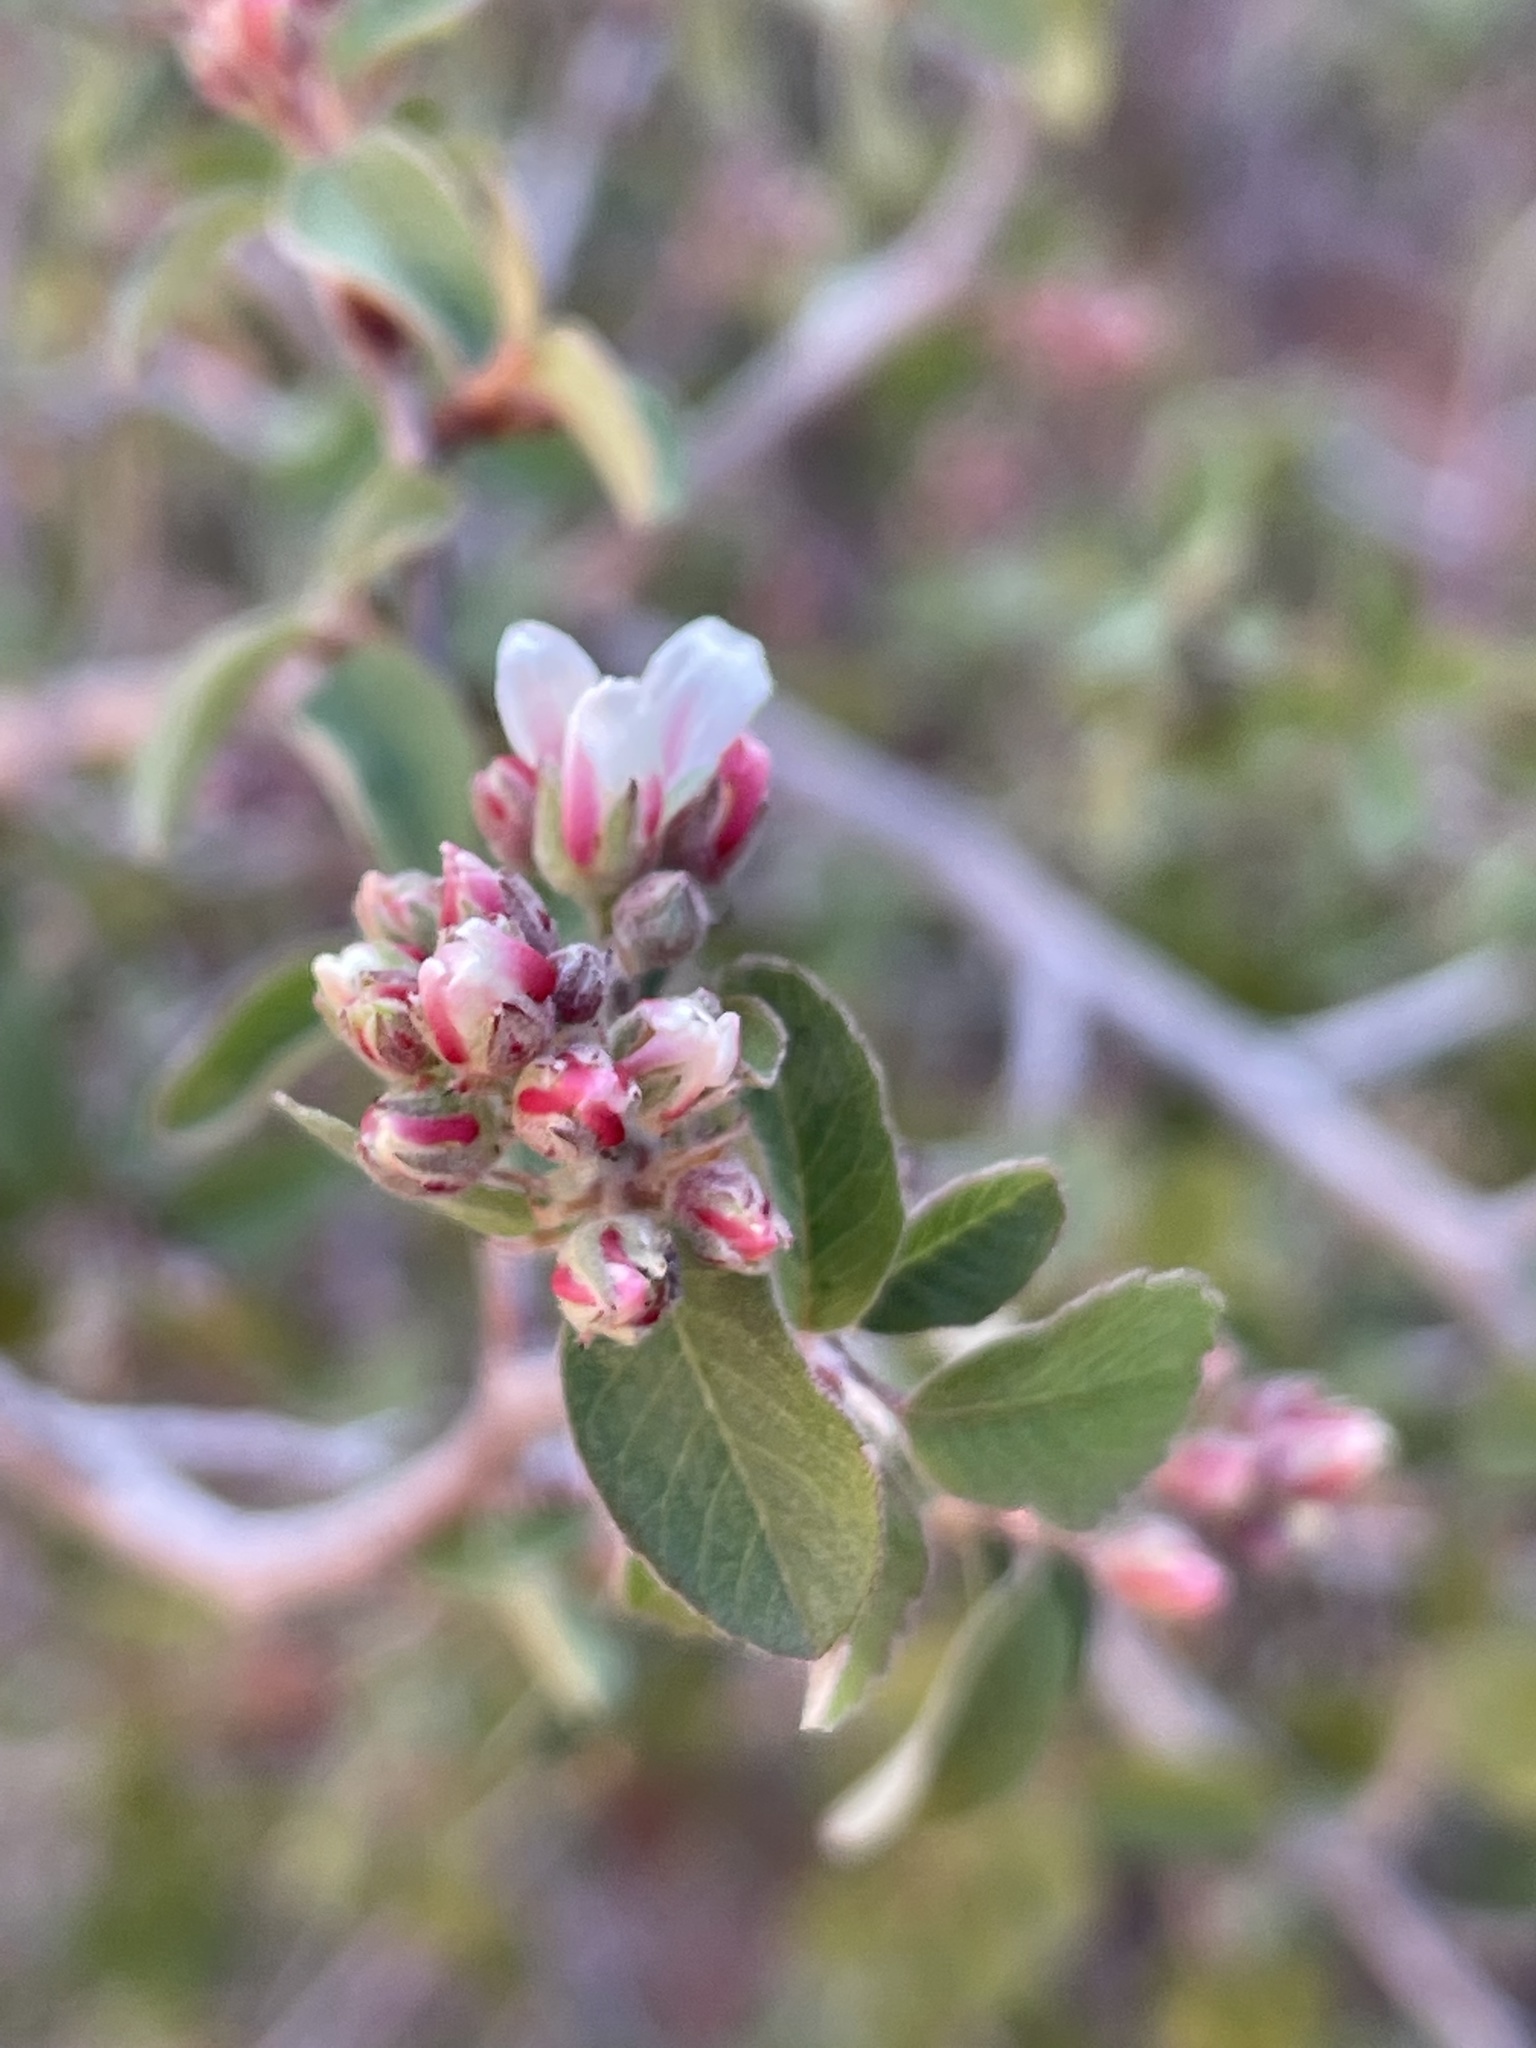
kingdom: Plantae
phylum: Tracheophyta
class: Magnoliopsida
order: Rosales
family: Rosaceae
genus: Amelanchier
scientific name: Amelanchier utahensis
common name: Utah serviceberry
